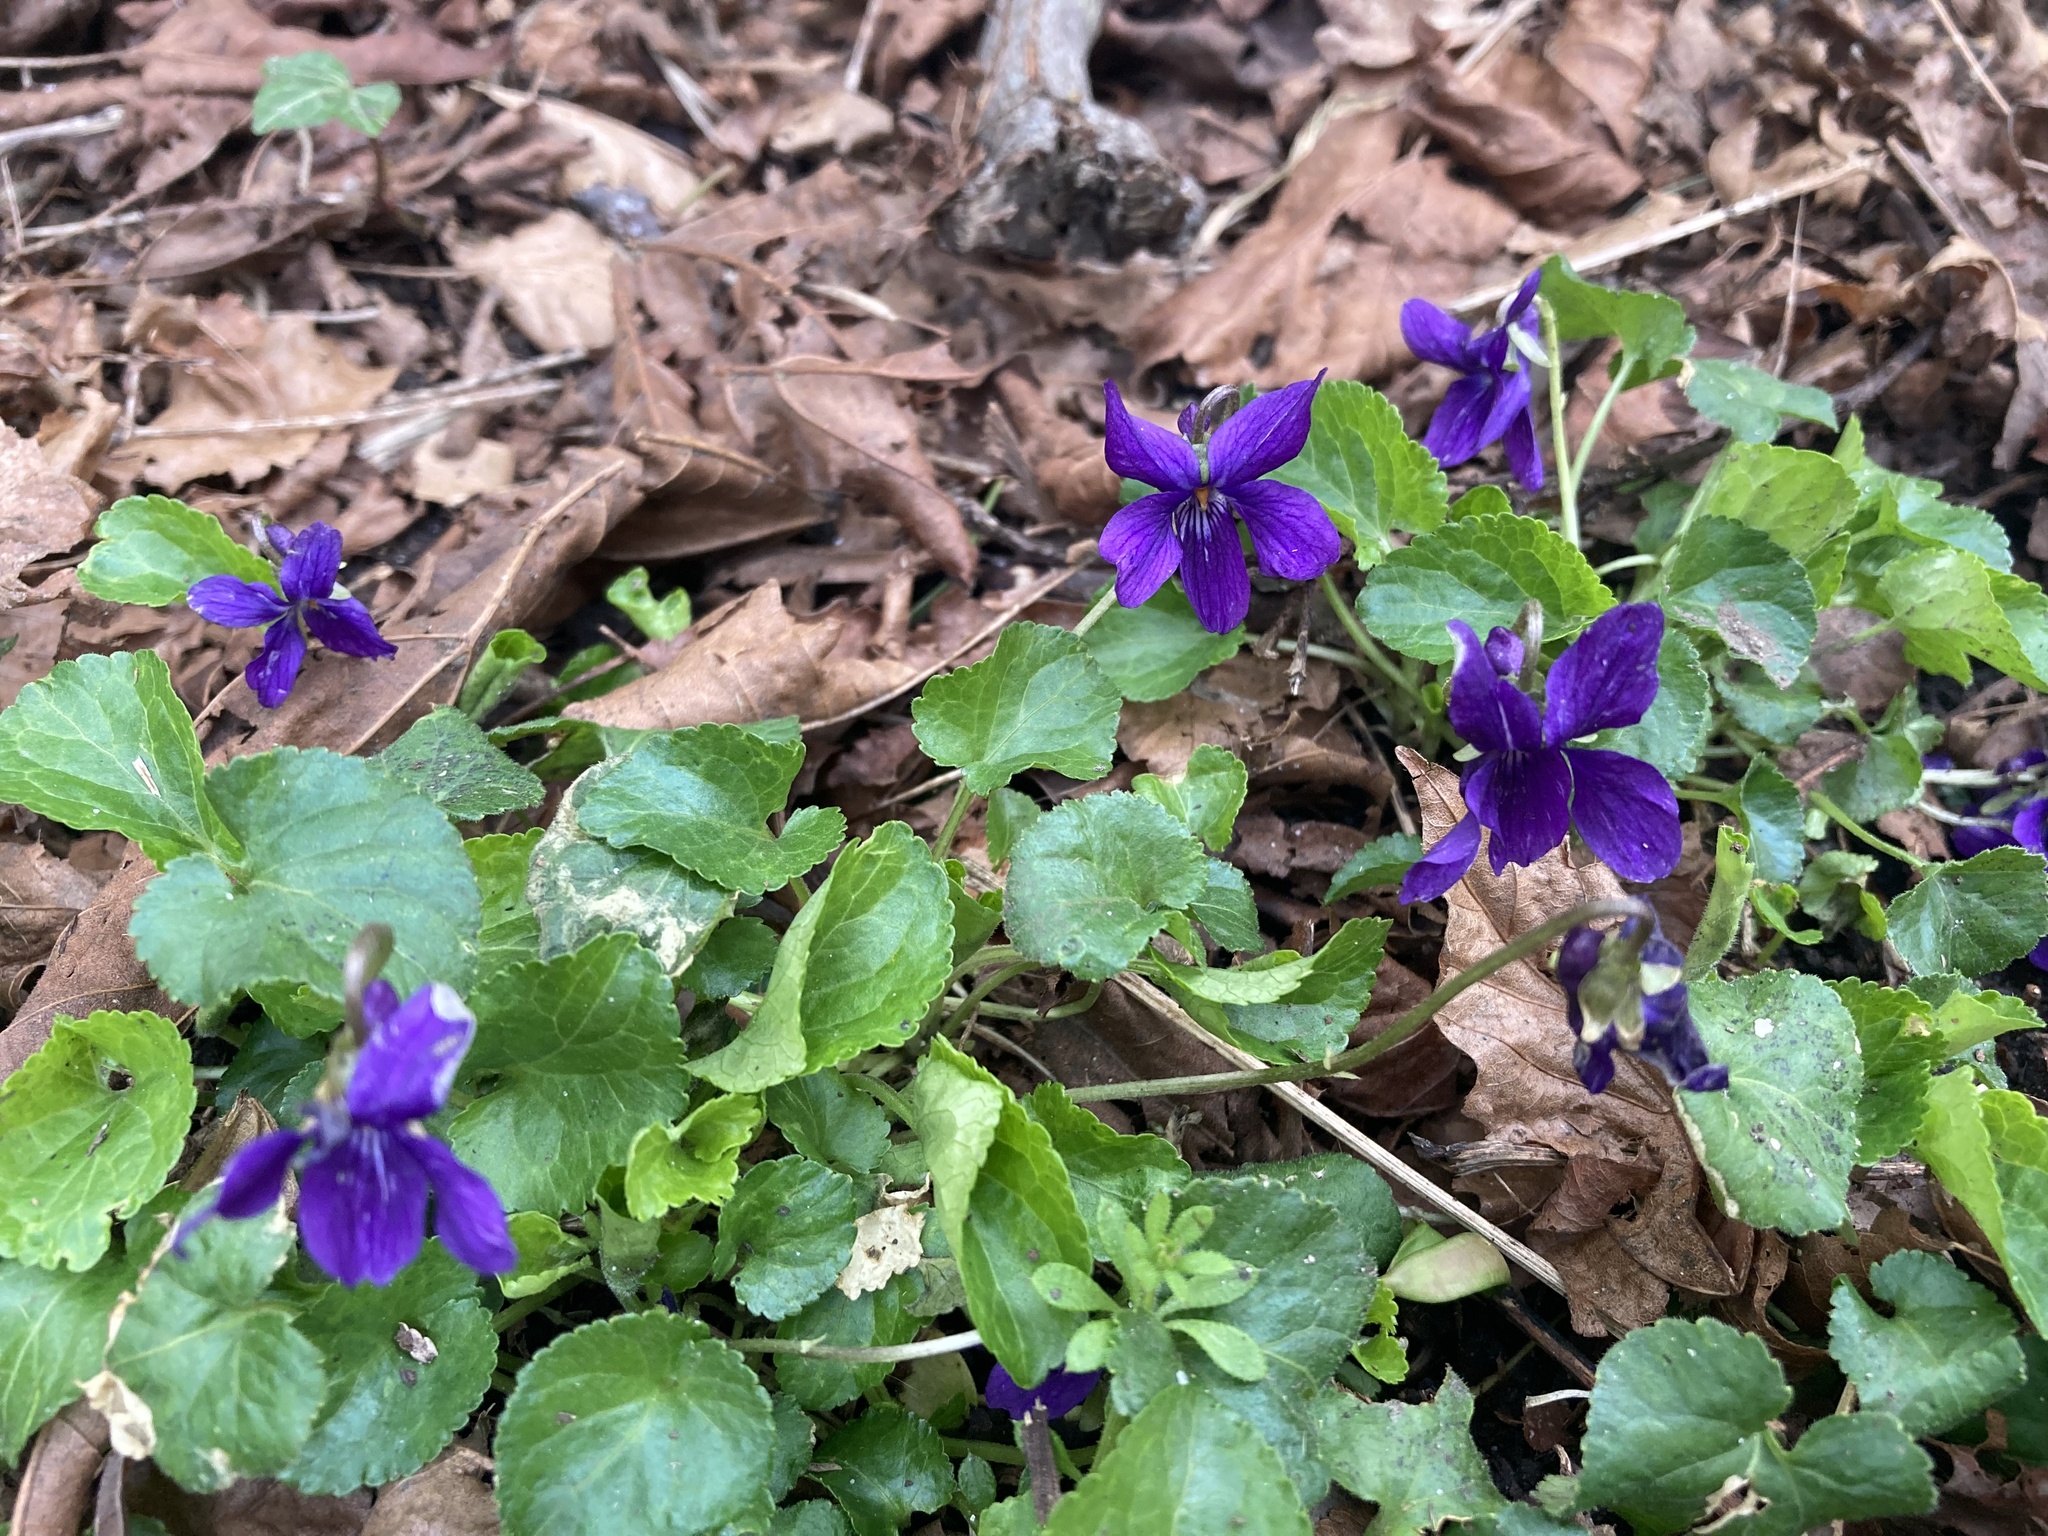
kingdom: Plantae
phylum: Tracheophyta
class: Magnoliopsida
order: Malpighiales
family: Violaceae
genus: Viola
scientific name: Viola odorata
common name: Sweet violet
